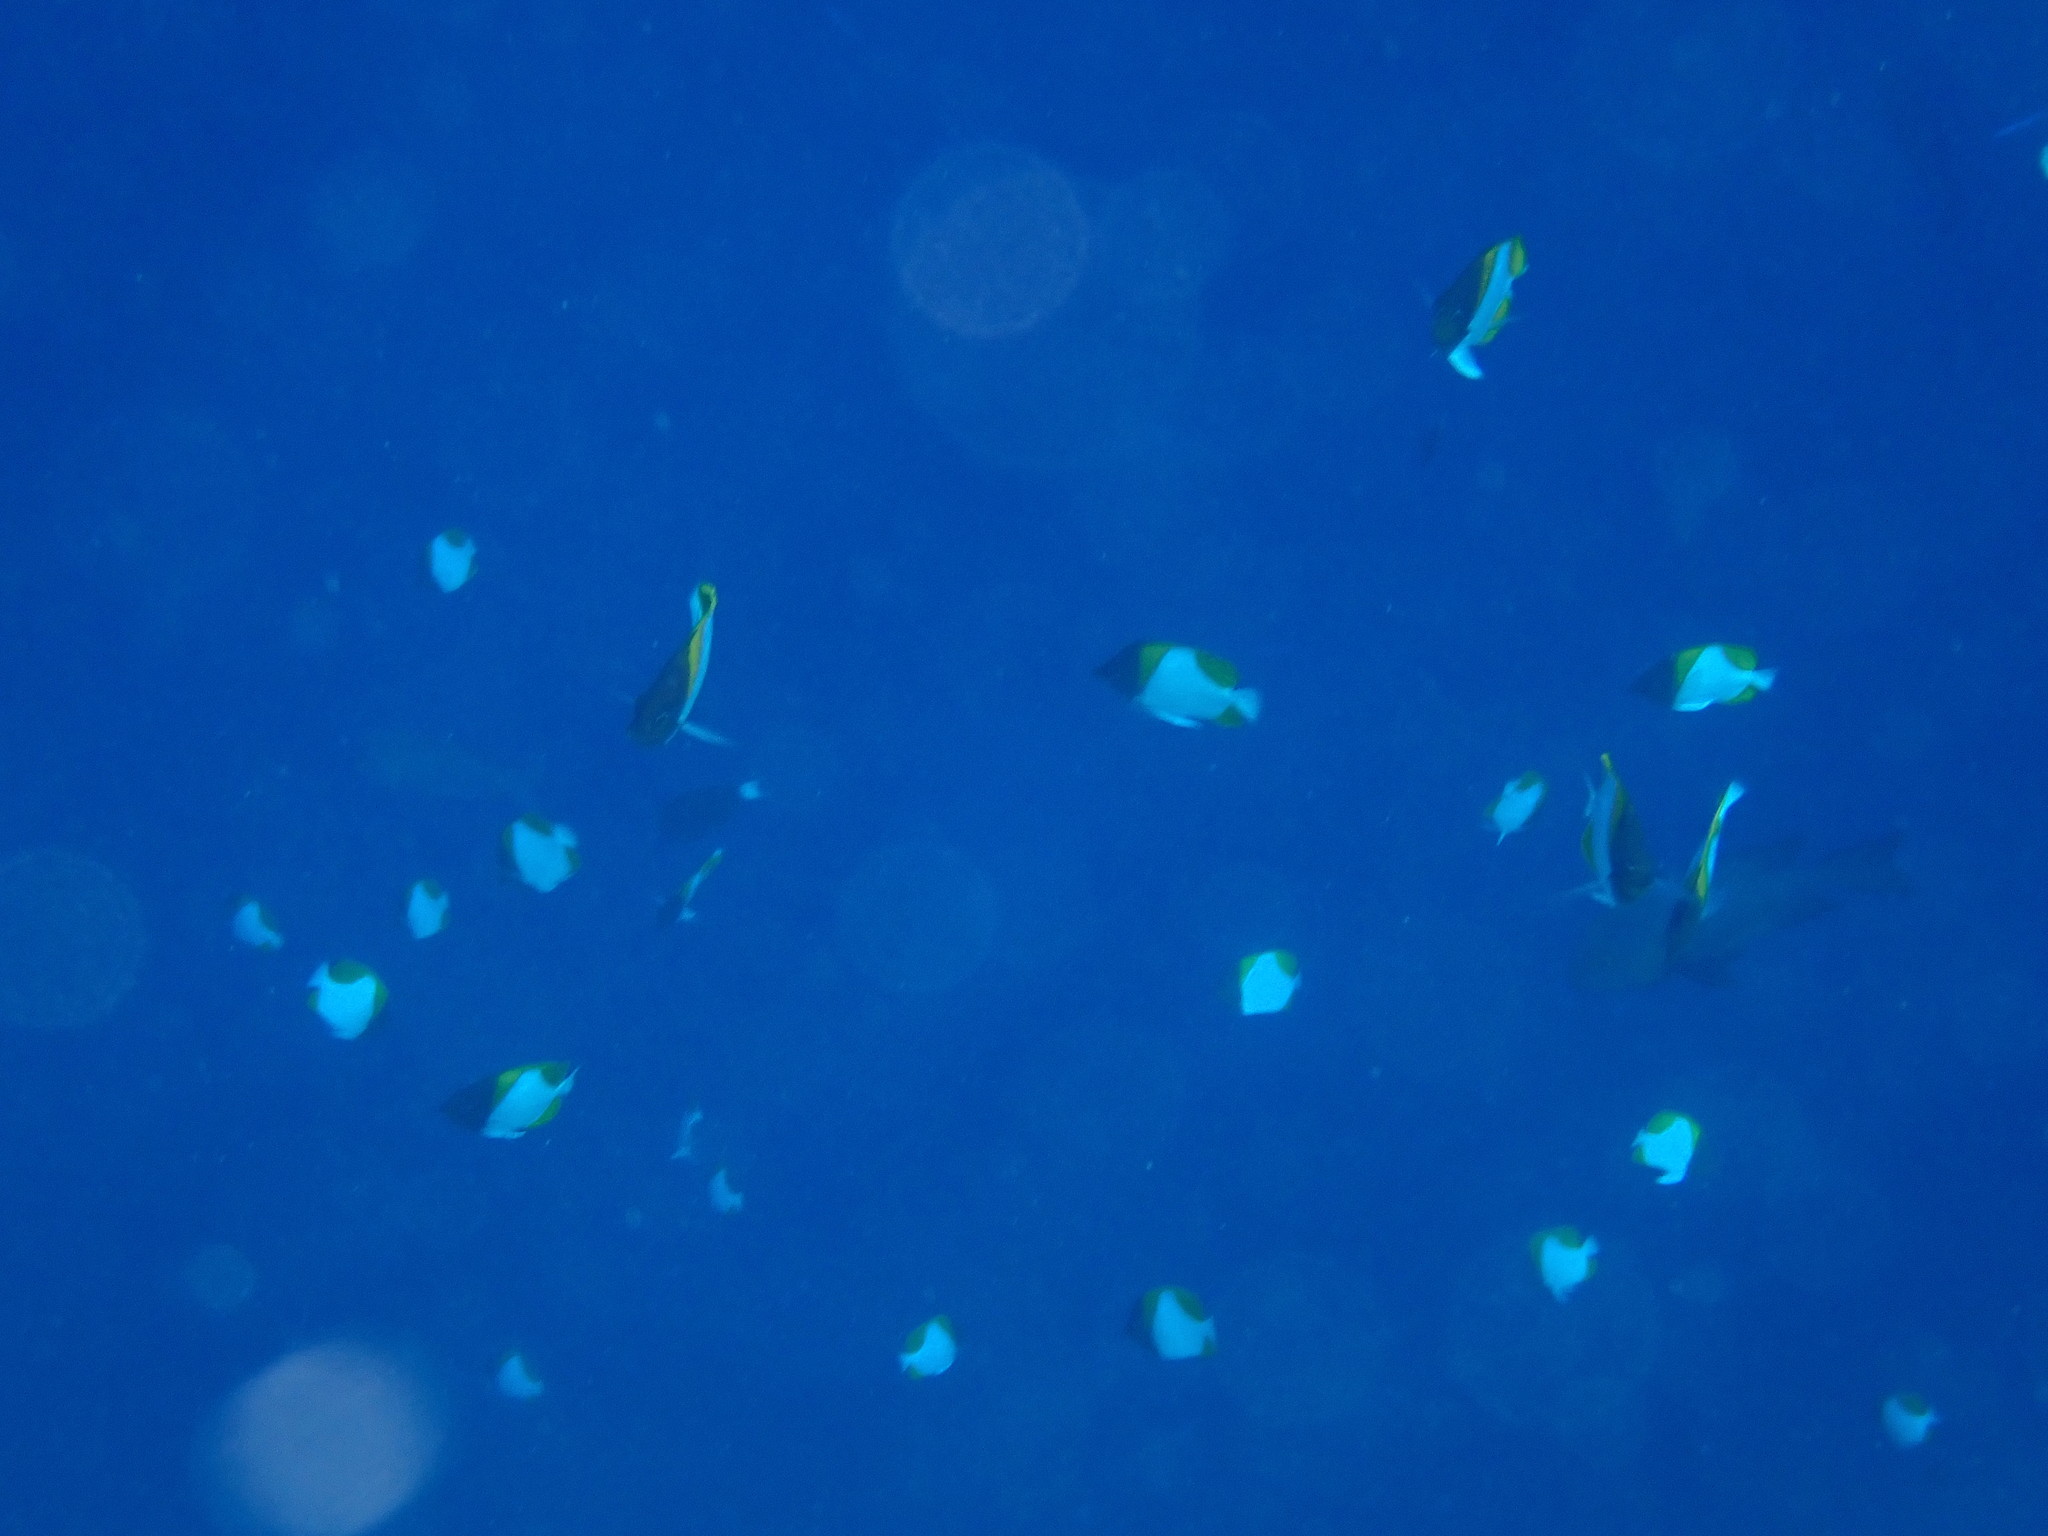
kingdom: Animalia
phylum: Chordata
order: Perciformes
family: Chaetodontidae
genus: Hemitaurichthys
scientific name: Hemitaurichthys polylepis
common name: Brushytoothed butterflyfish
